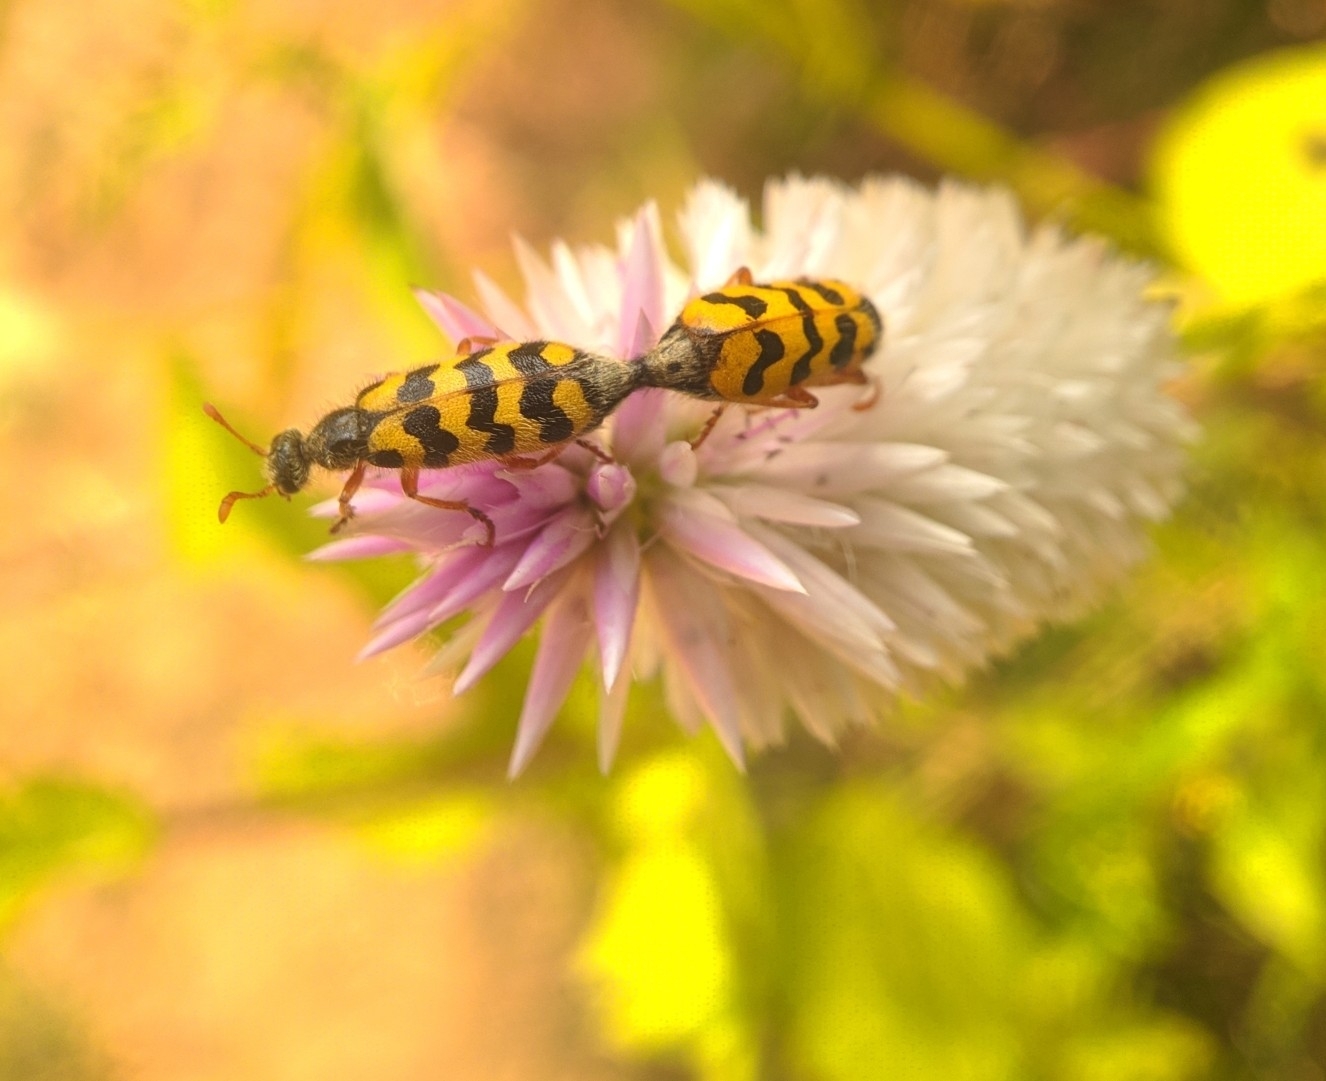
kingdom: Animalia
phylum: Arthropoda
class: Insecta
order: Coleoptera
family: Meloidae
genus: Hycleus
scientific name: Hycleus
